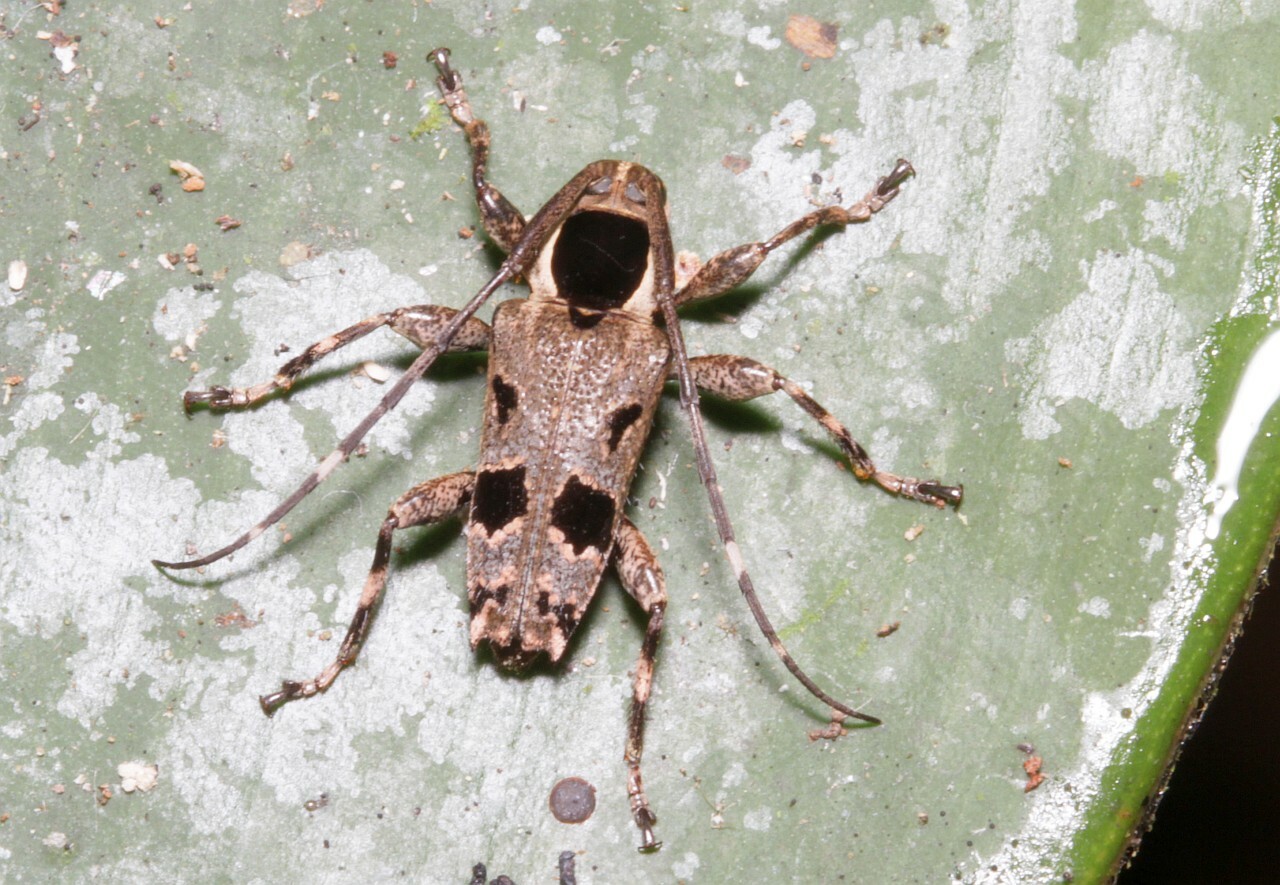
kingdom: Animalia
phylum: Arthropoda
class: Insecta
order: Coleoptera
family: Cerambycidae
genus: Colobothea
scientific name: Colobothea assimilis
